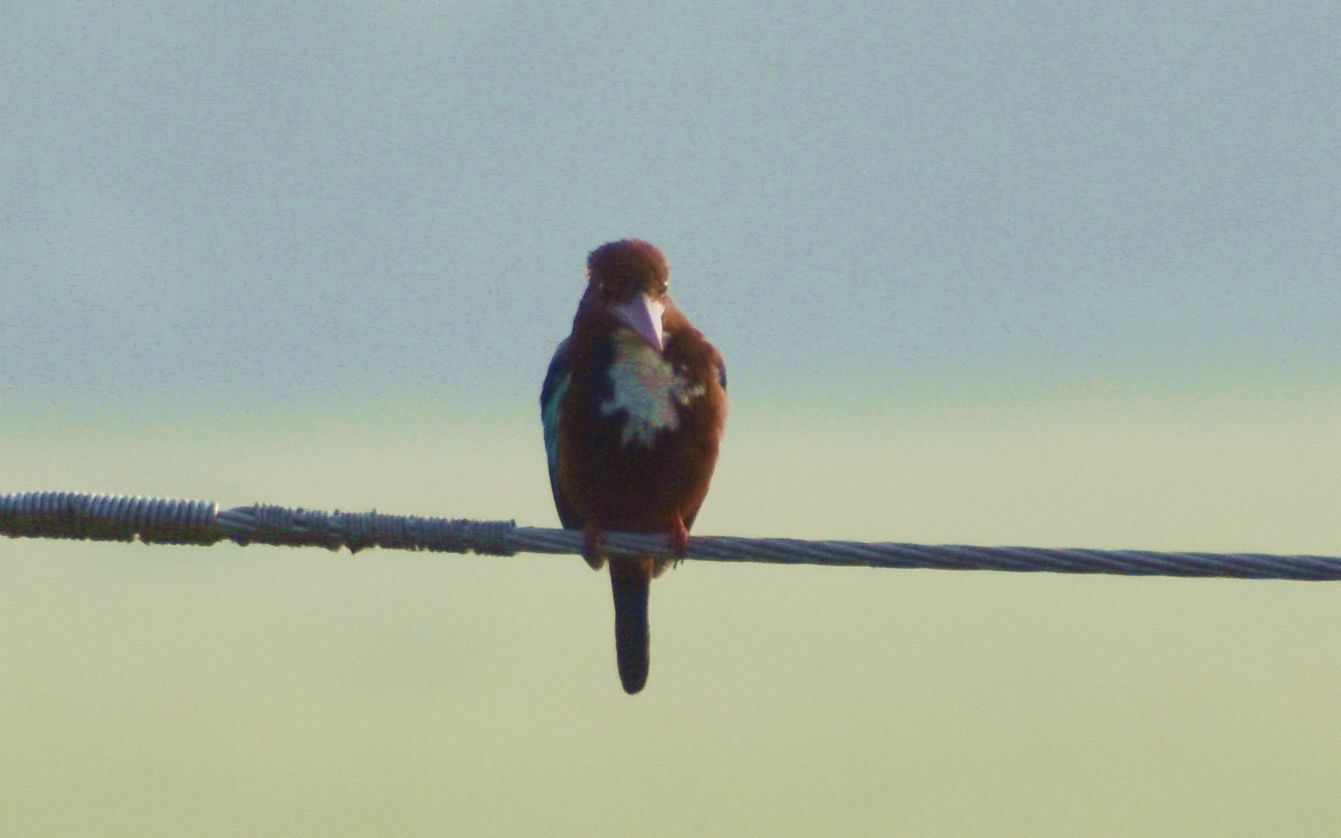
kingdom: Animalia
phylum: Chordata
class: Aves
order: Coraciiformes
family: Alcedinidae
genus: Halcyon
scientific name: Halcyon smyrnensis
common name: White-throated kingfisher
